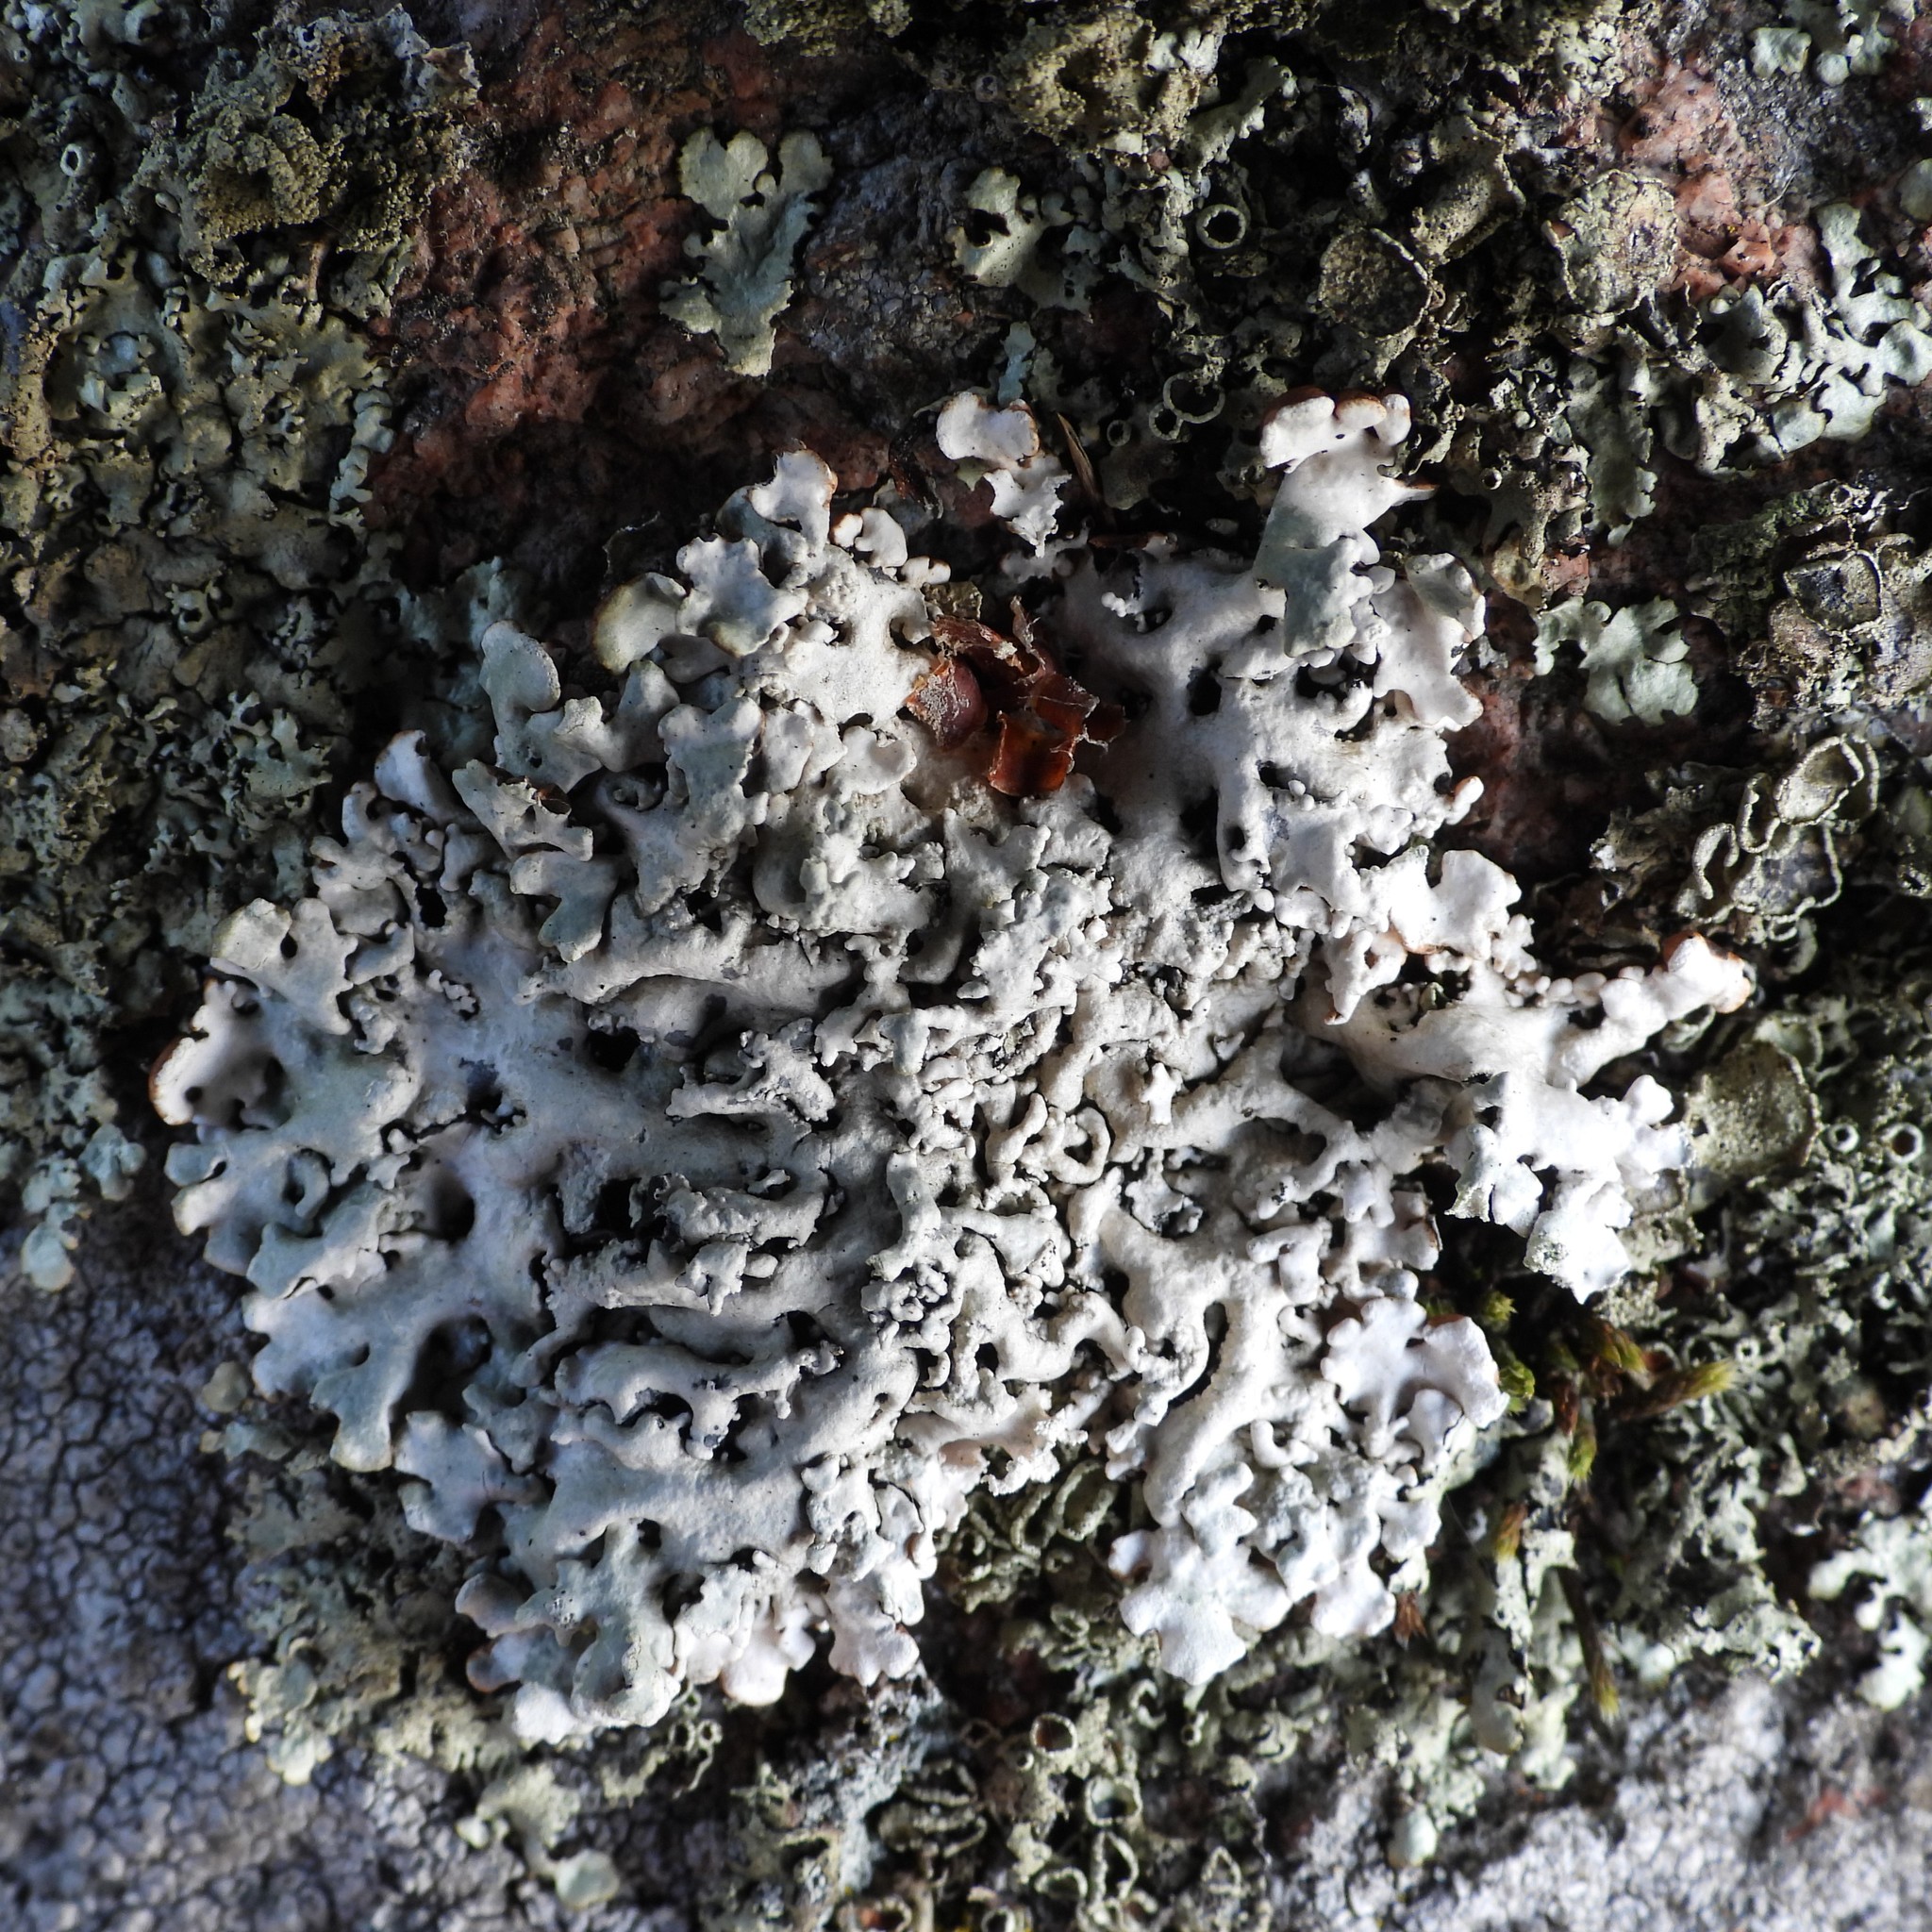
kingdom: Fungi
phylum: Ascomycota
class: Lecanoromycetes
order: Lecanorales
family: Parmeliaceae
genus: Hypogymnia
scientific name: Hypogymnia physodes
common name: Dark crottle
